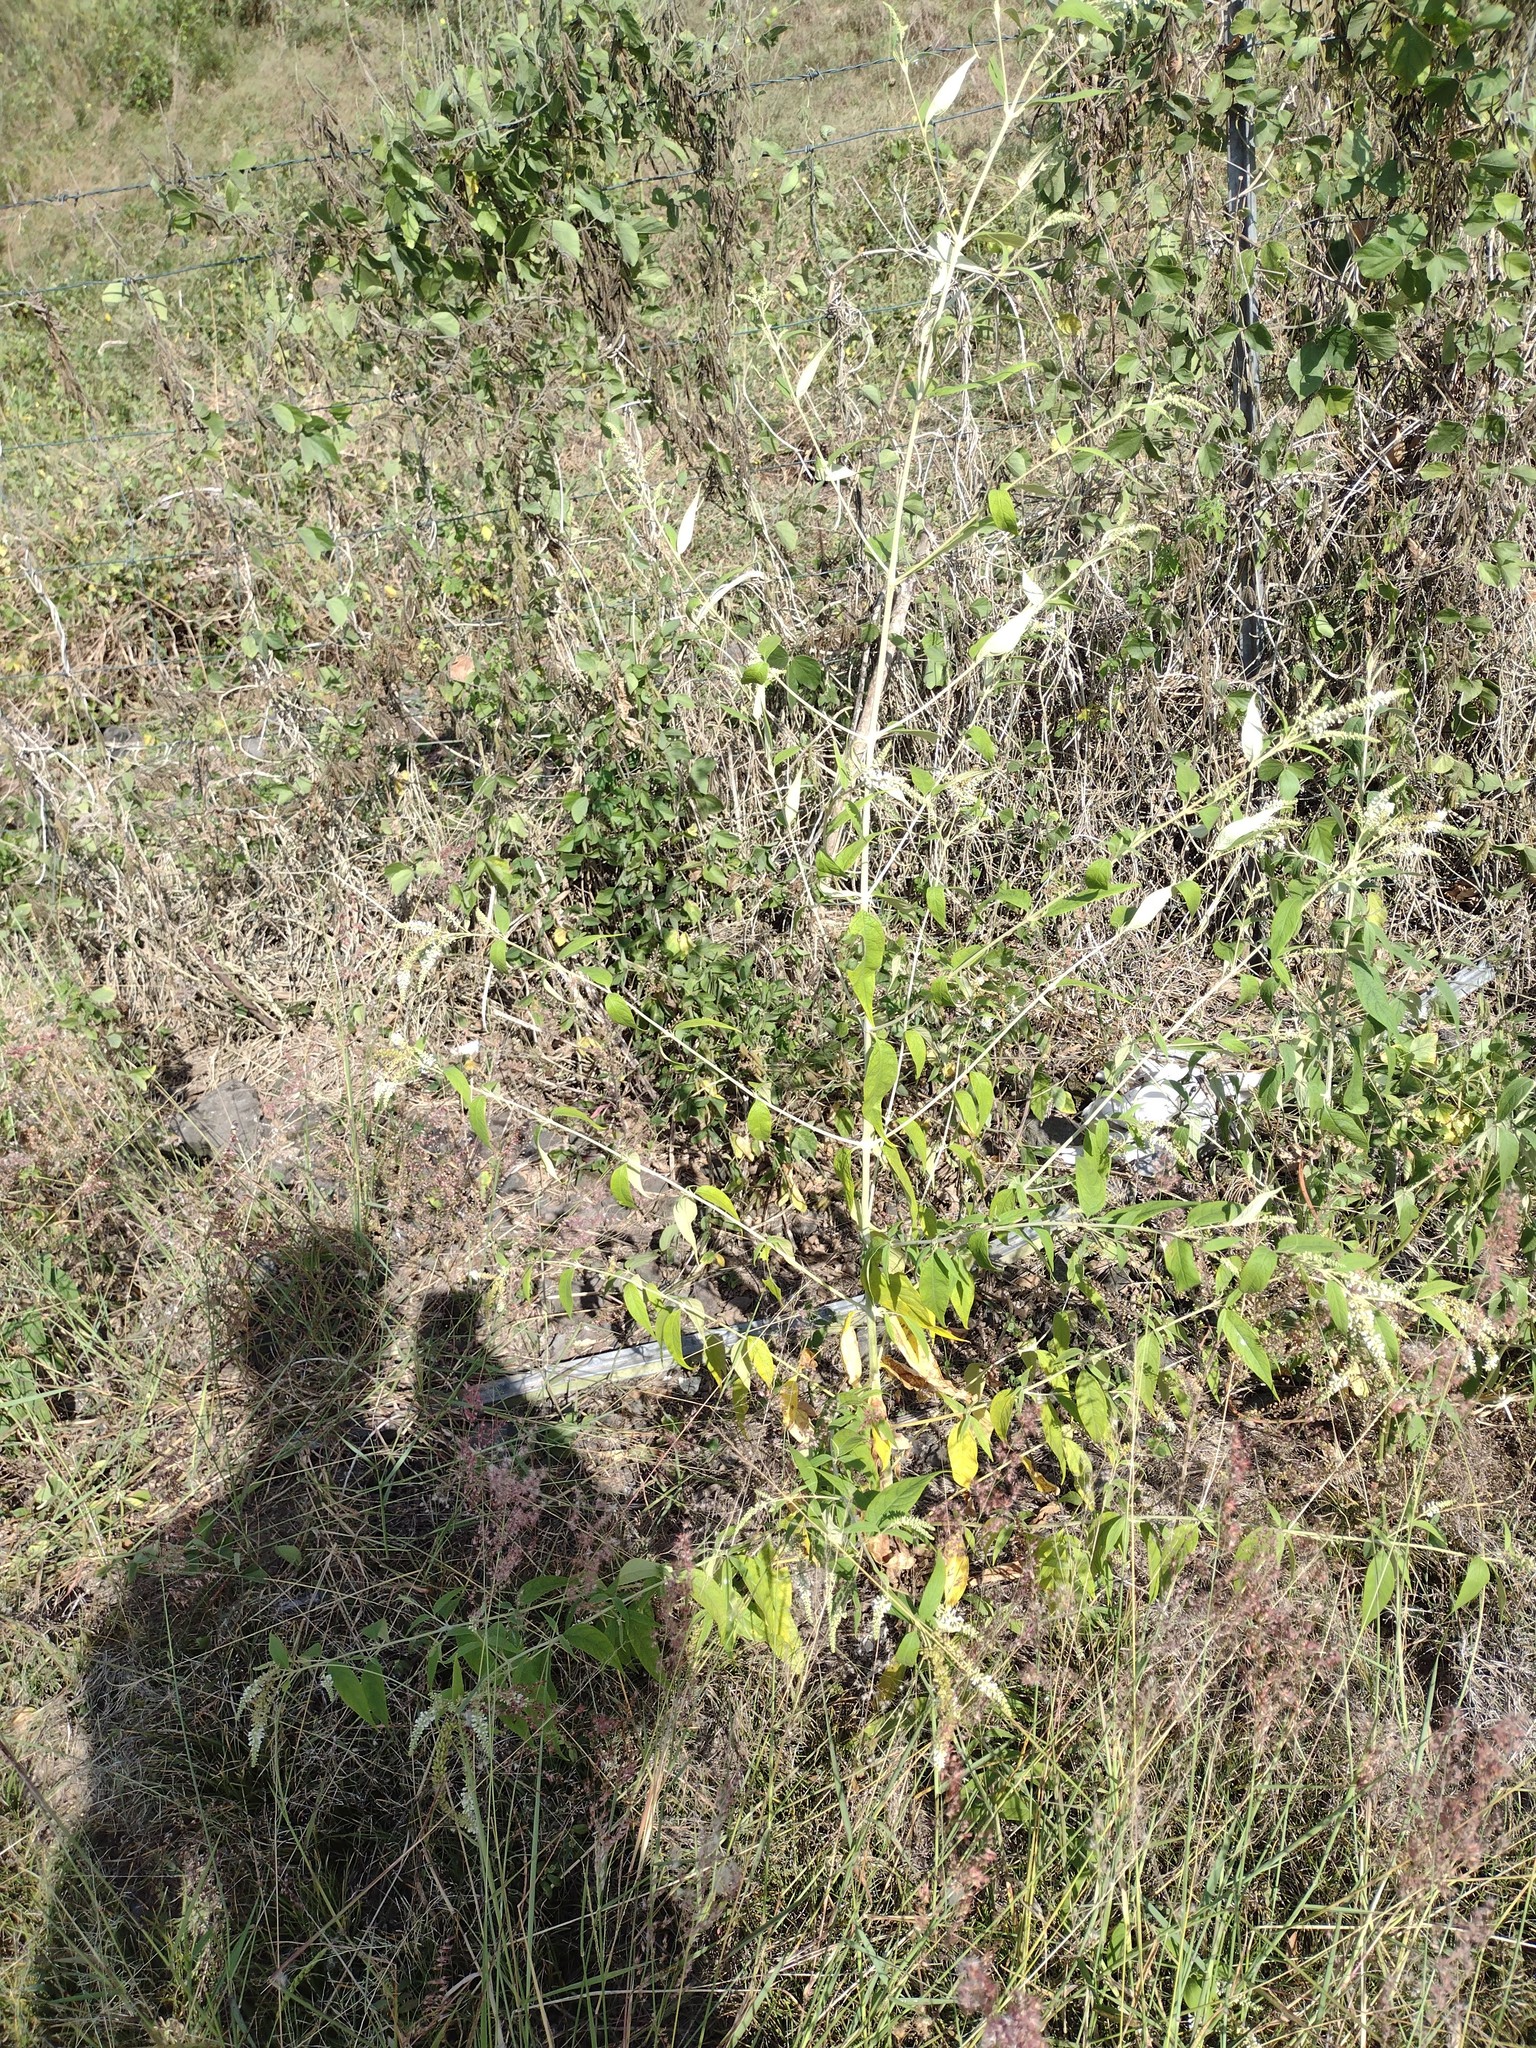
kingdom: Plantae
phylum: Tracheophyta
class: Magnoliopsida
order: Lamiales
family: Scrophulariaceae
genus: Buddleja
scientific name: Buddleja asiatica
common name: Dog tail
